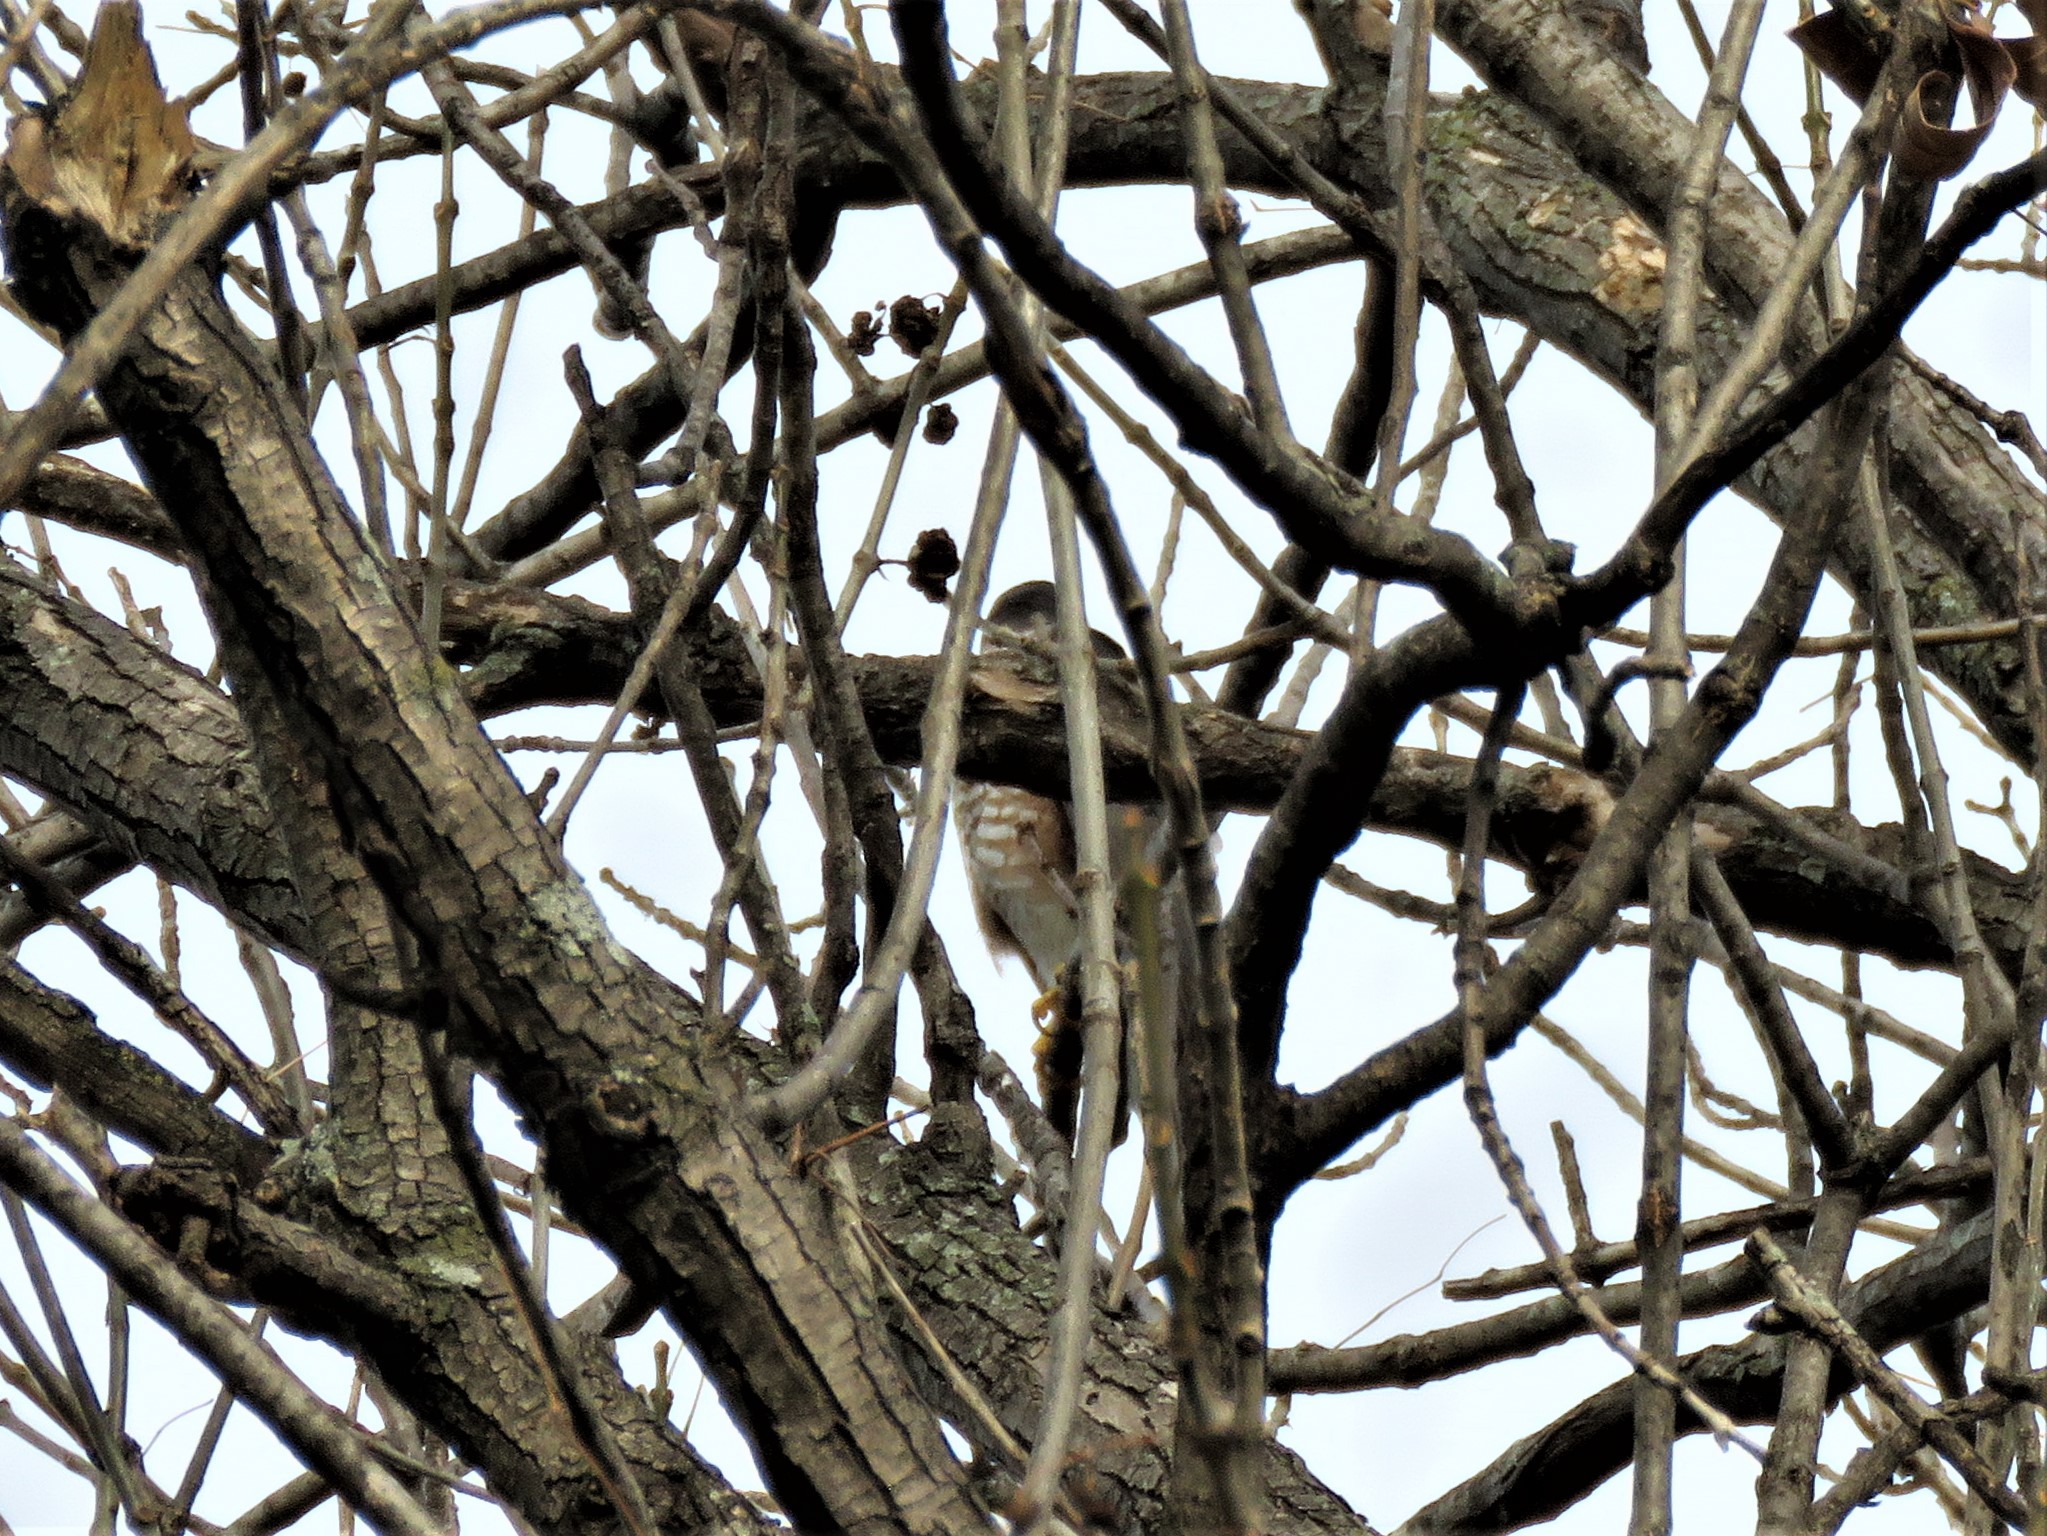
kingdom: Animalia
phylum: Chordata
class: Aves
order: Accipitriformes
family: Accipitridae
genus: Accipiter
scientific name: Accipiter striatus
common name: Sharp-shinned hawk
